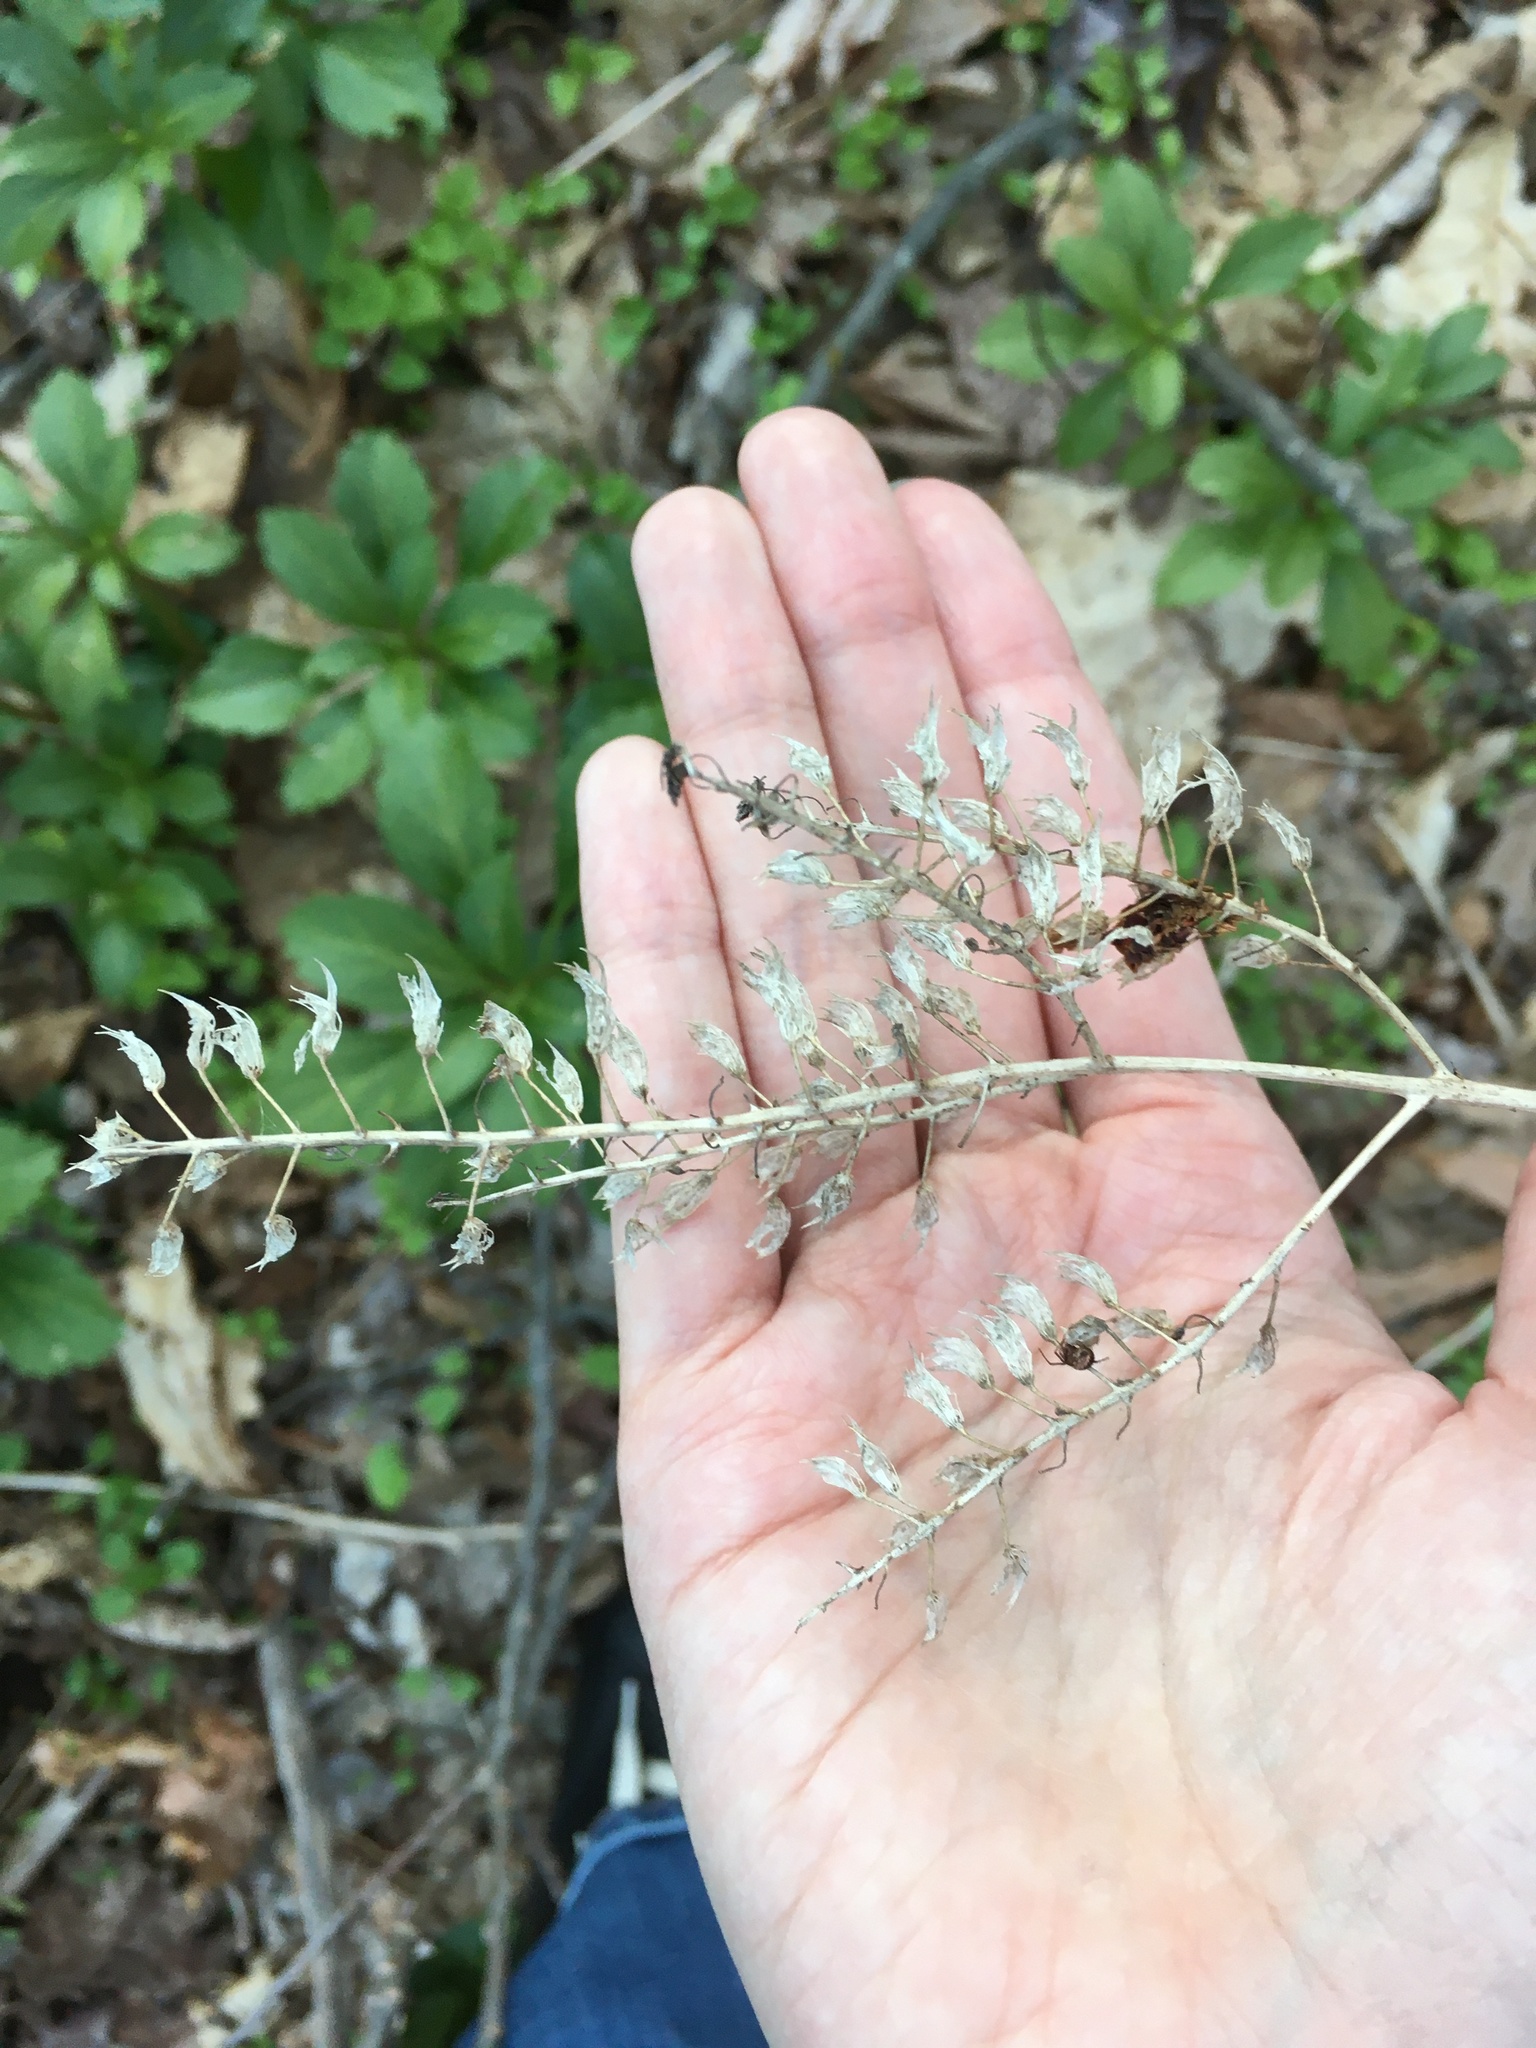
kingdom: Plantae
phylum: Tracheophyta
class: Magnoliopsida
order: Lamiales
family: Lamiaceae
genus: Perilla
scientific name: Perilla frutescens
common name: Perilla
